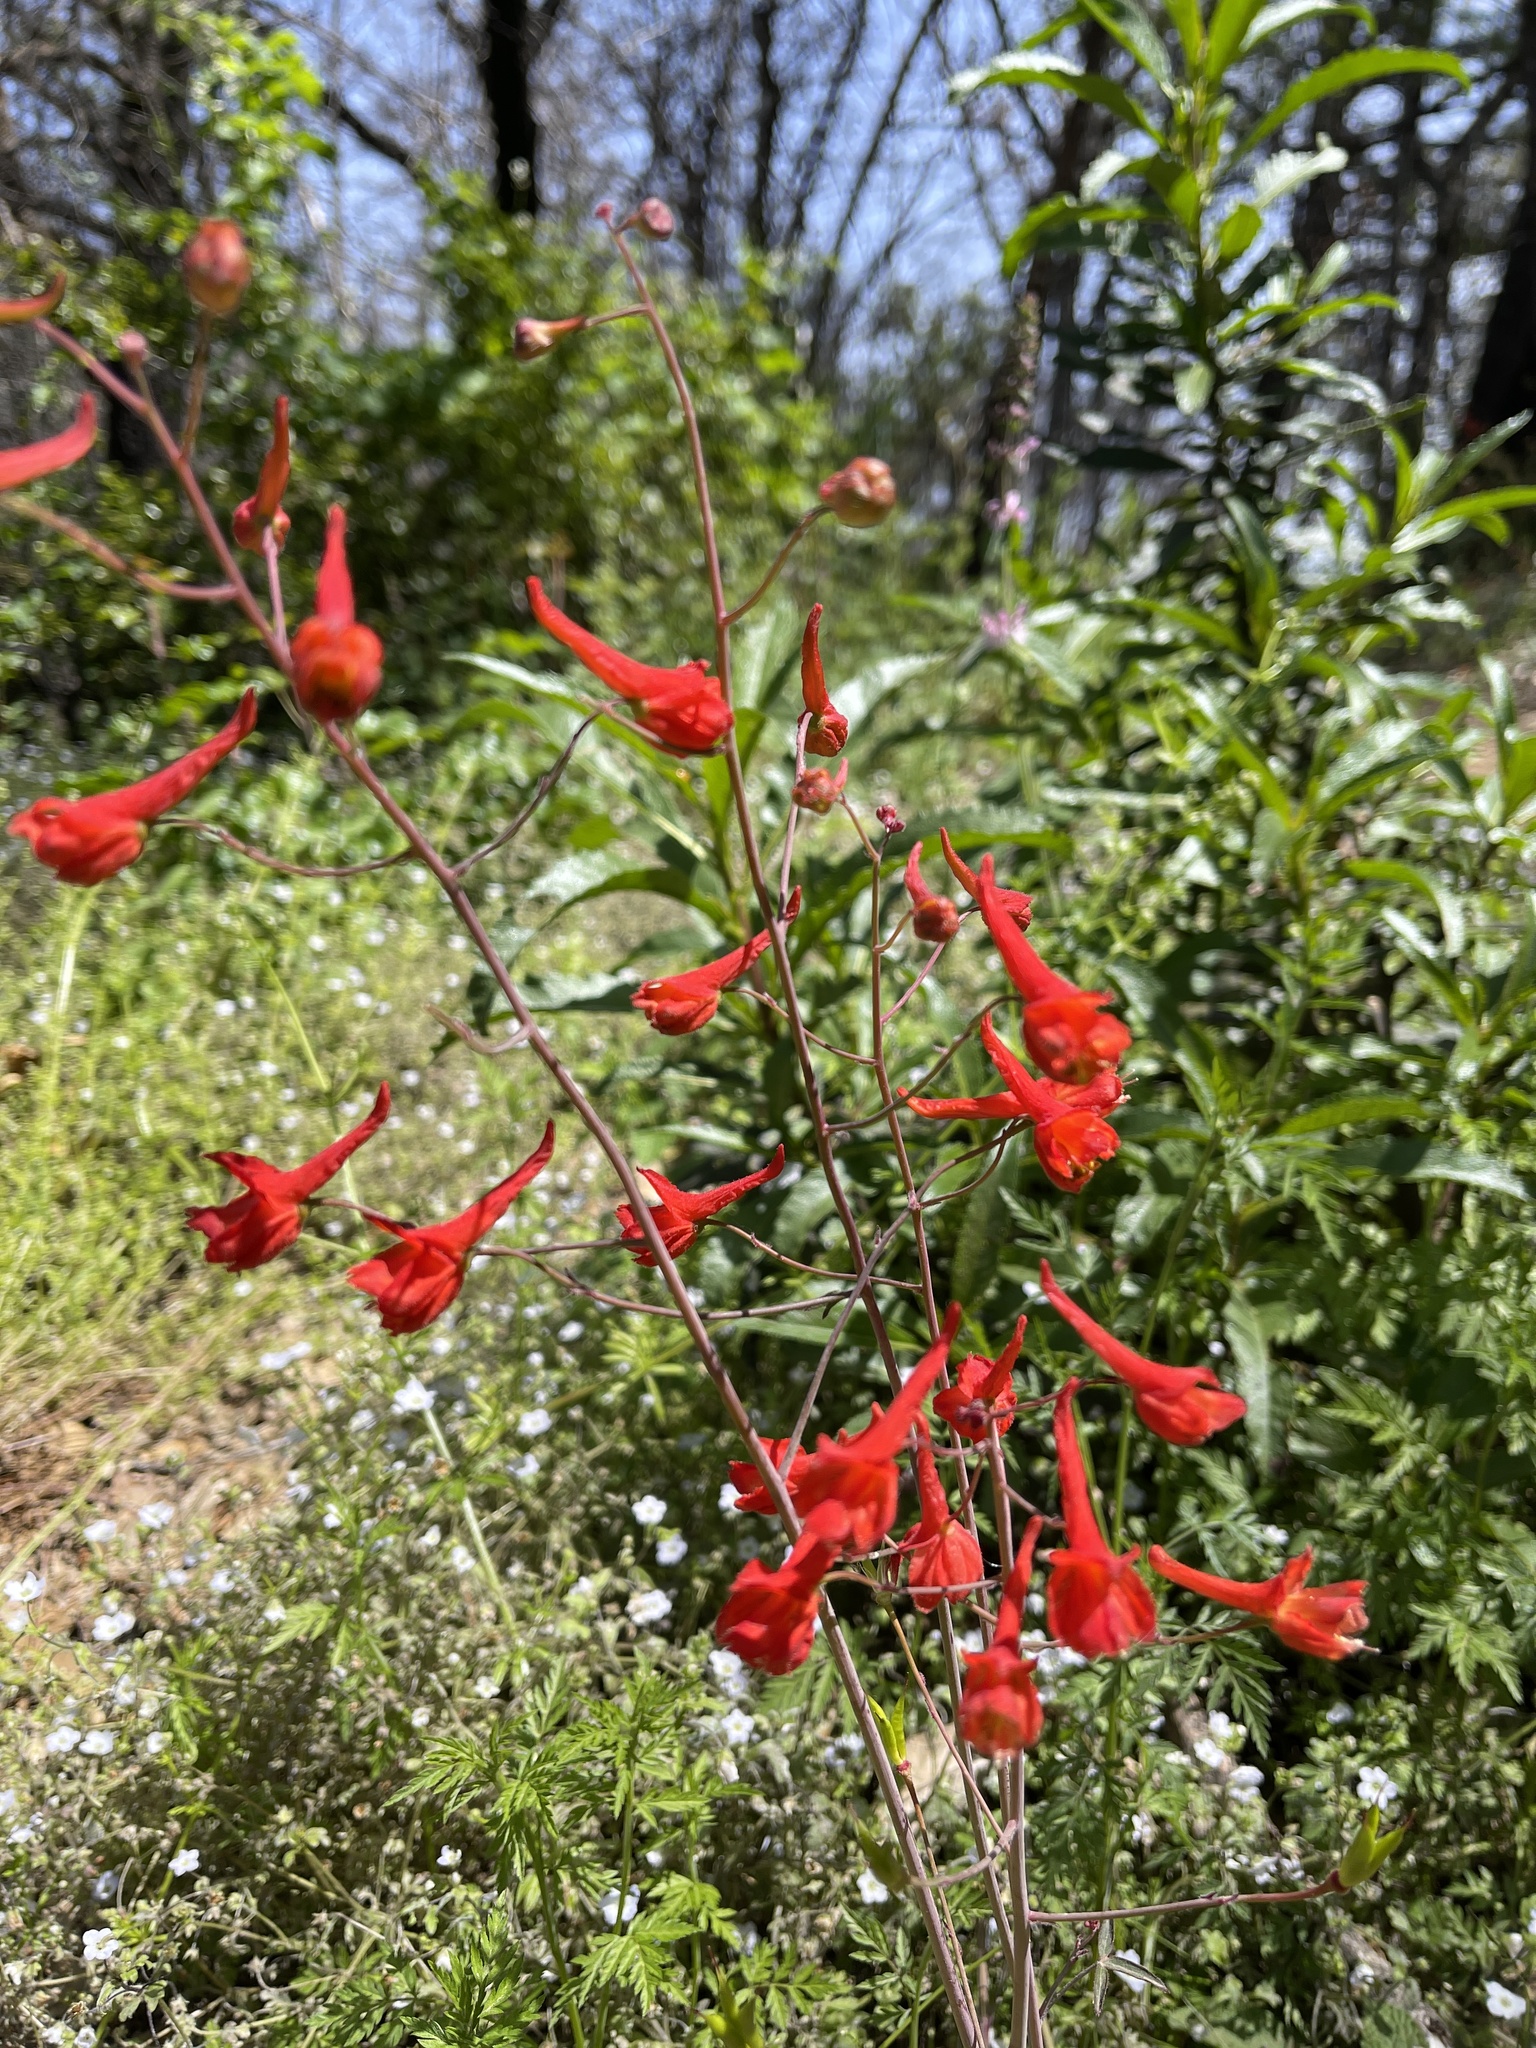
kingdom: Plantae
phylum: Tracheophyta
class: Magnoliopsida
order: Ranunculales
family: Ranunculaceae
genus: Delphinium
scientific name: Delphinium nudicaule
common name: Red larkspur
